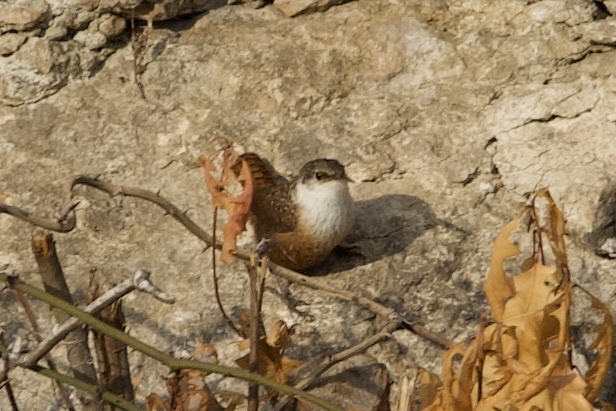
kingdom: Animalia
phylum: Chordata
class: Aves
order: Passeriformes
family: Troglodytidae
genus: Catherpes
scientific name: Catherpes mexicanus
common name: Canyon wren
